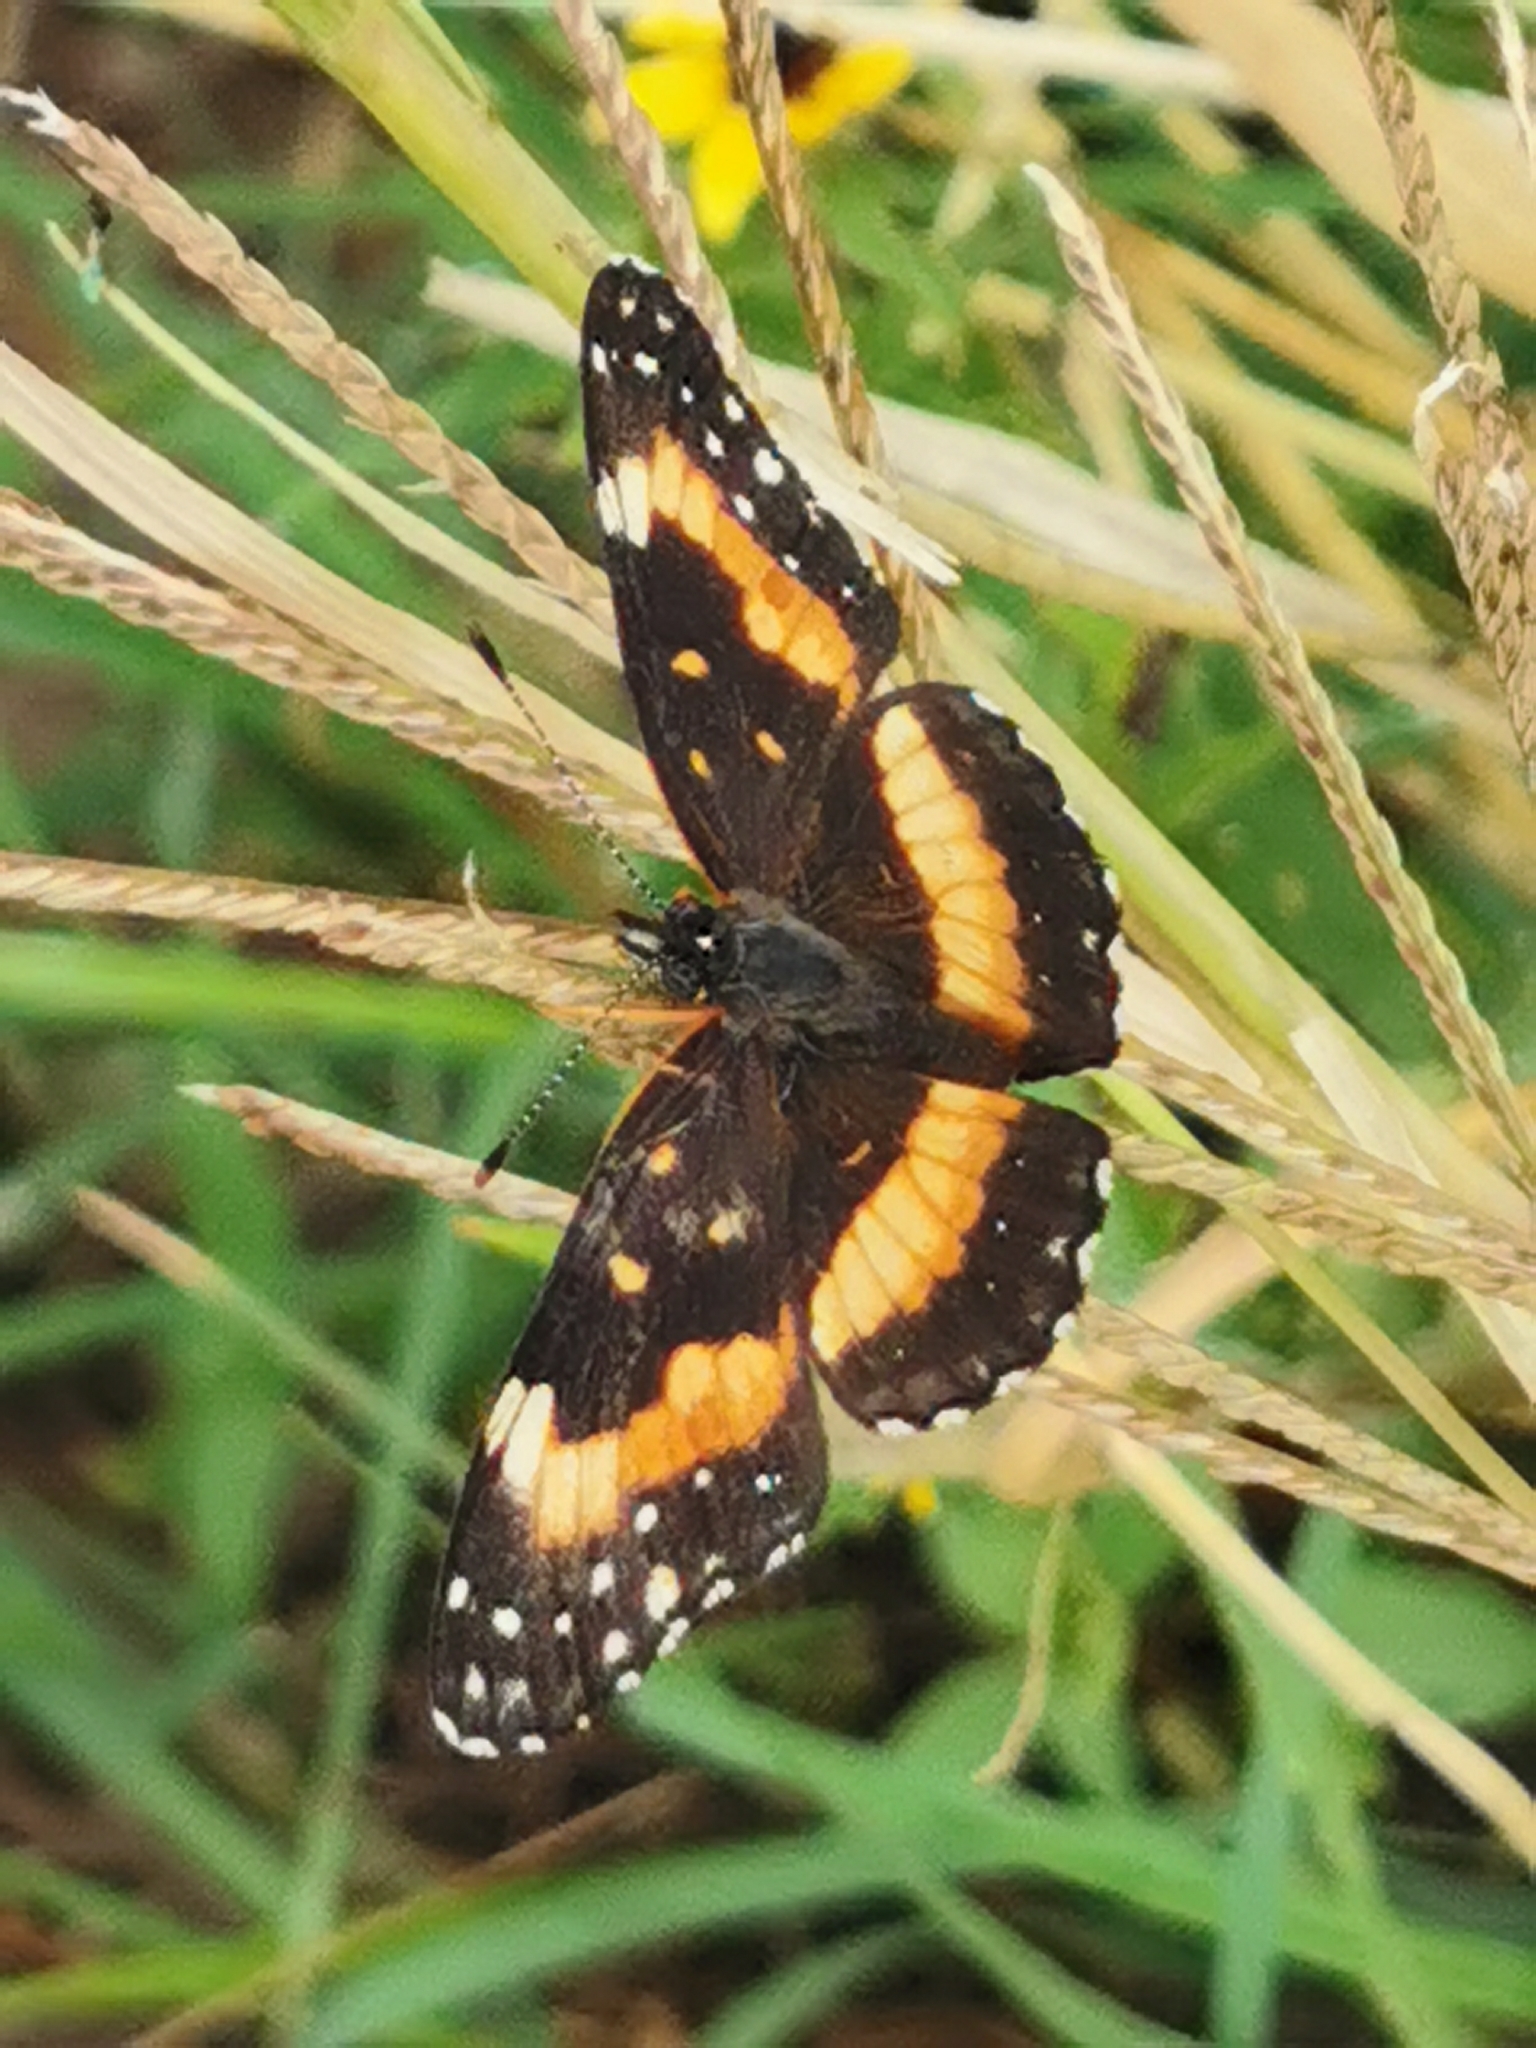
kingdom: Animalia
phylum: Arthropoda
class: Insecta
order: Lepidoptera
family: Nymphalidae
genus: Chlosyne
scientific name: Chlosyne lacinia
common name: Bordered patch
